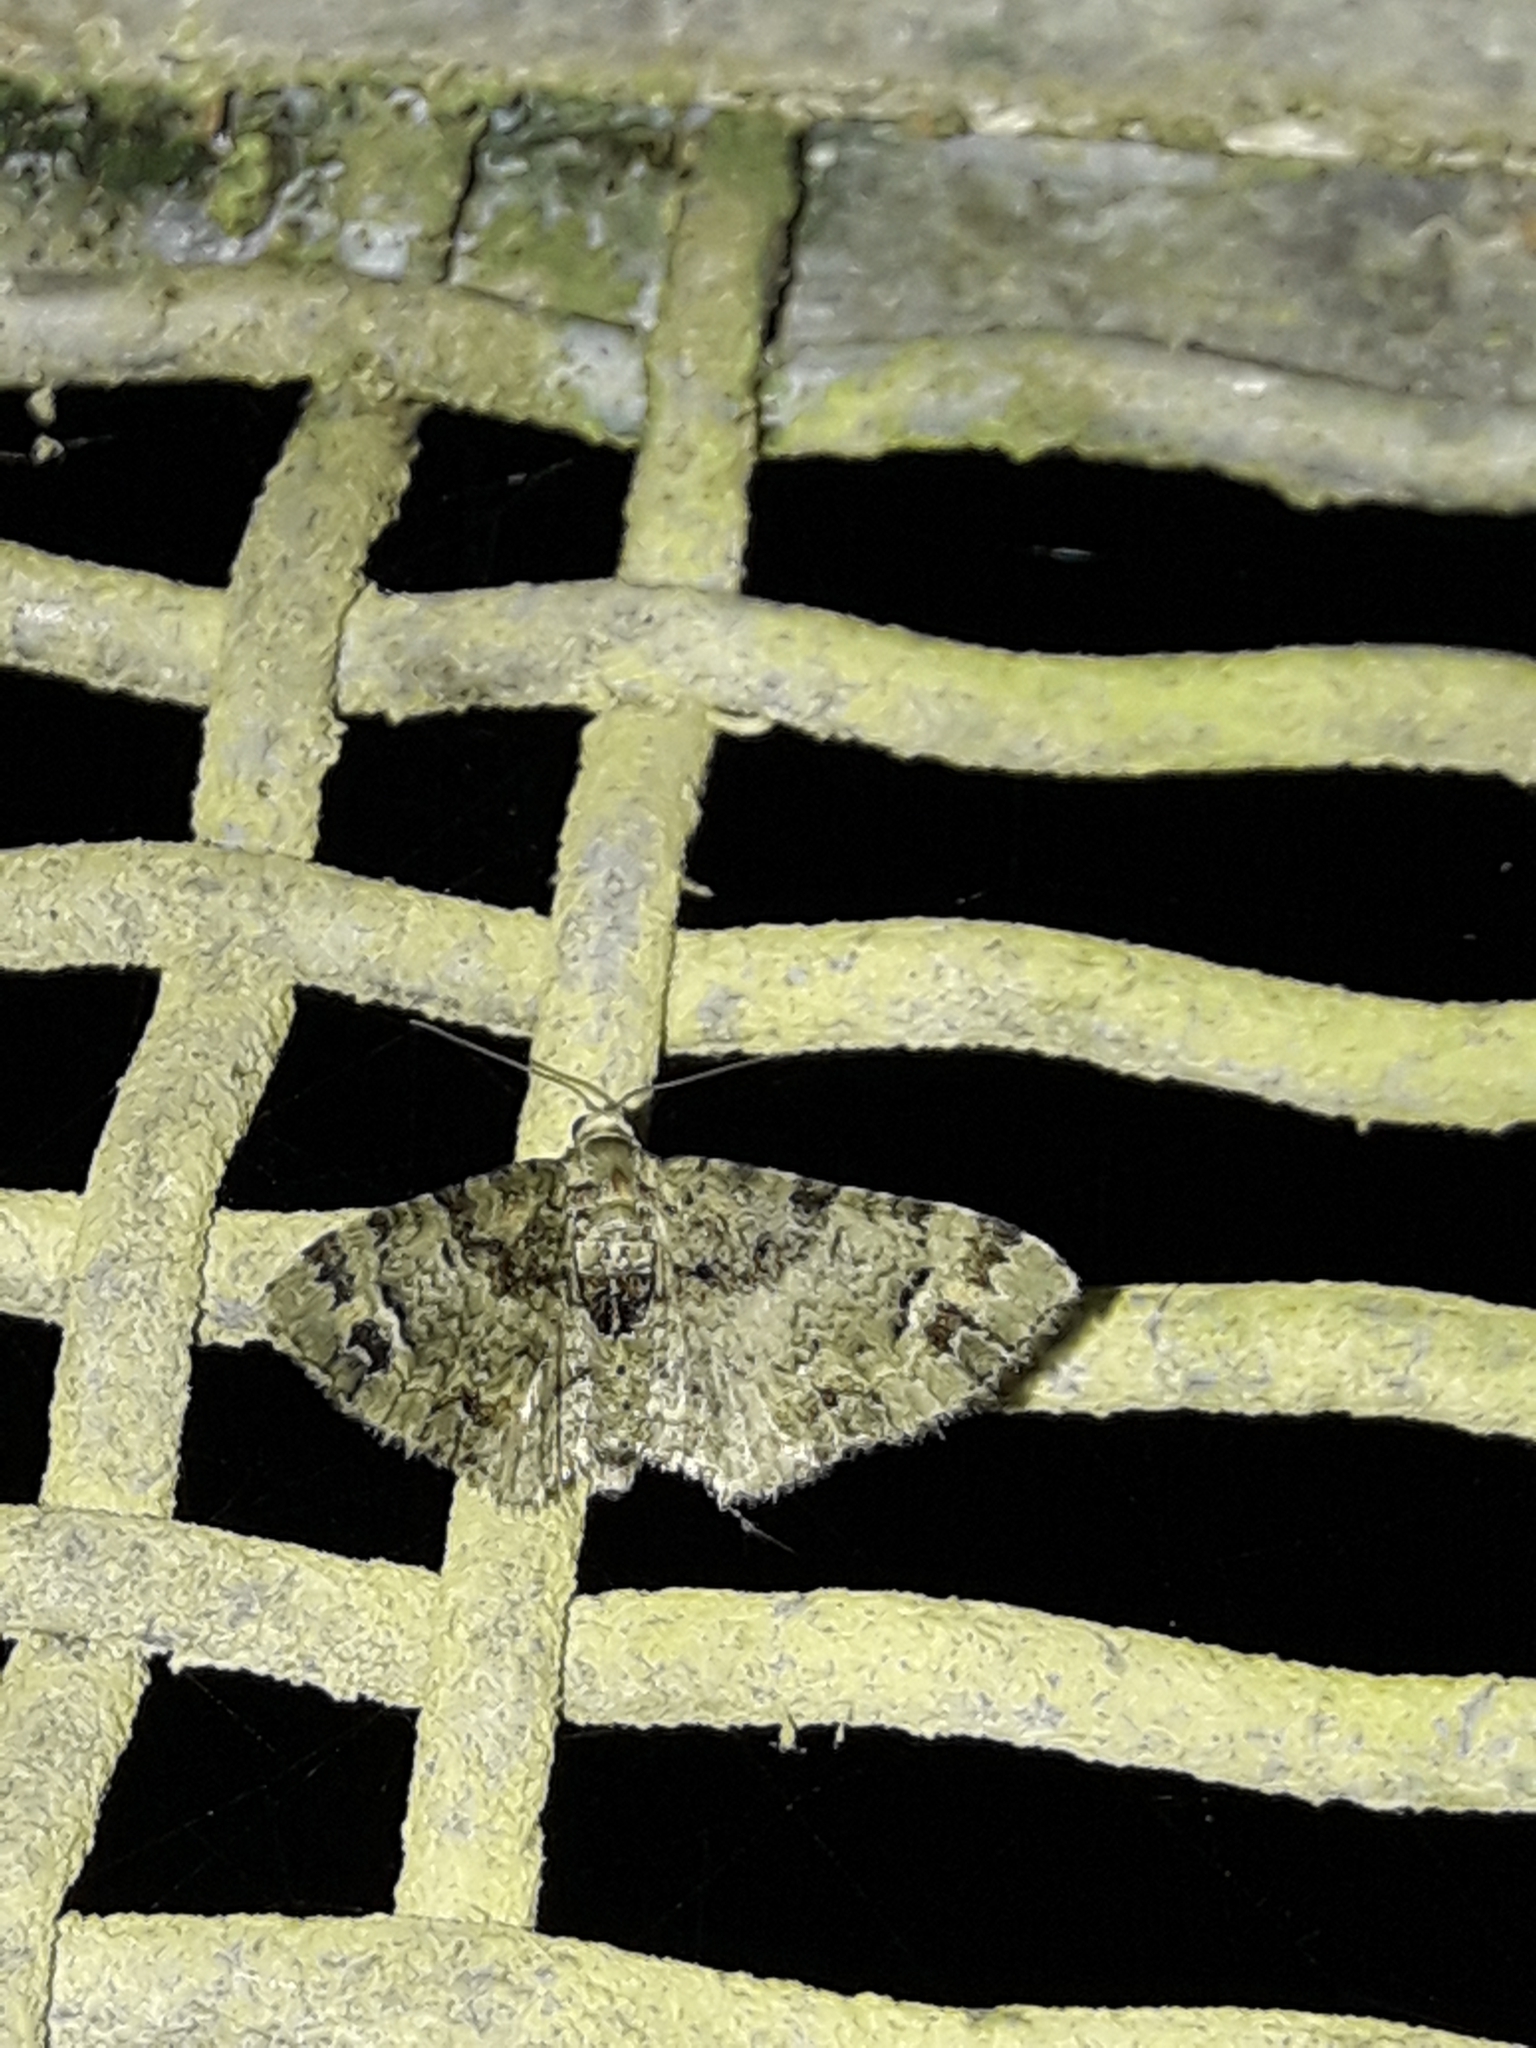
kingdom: Animalia
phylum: Arthropoda
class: Insecta
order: Lepidoptera
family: Geometridae
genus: Pasiphila
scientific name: Pasiphila bilineolata
